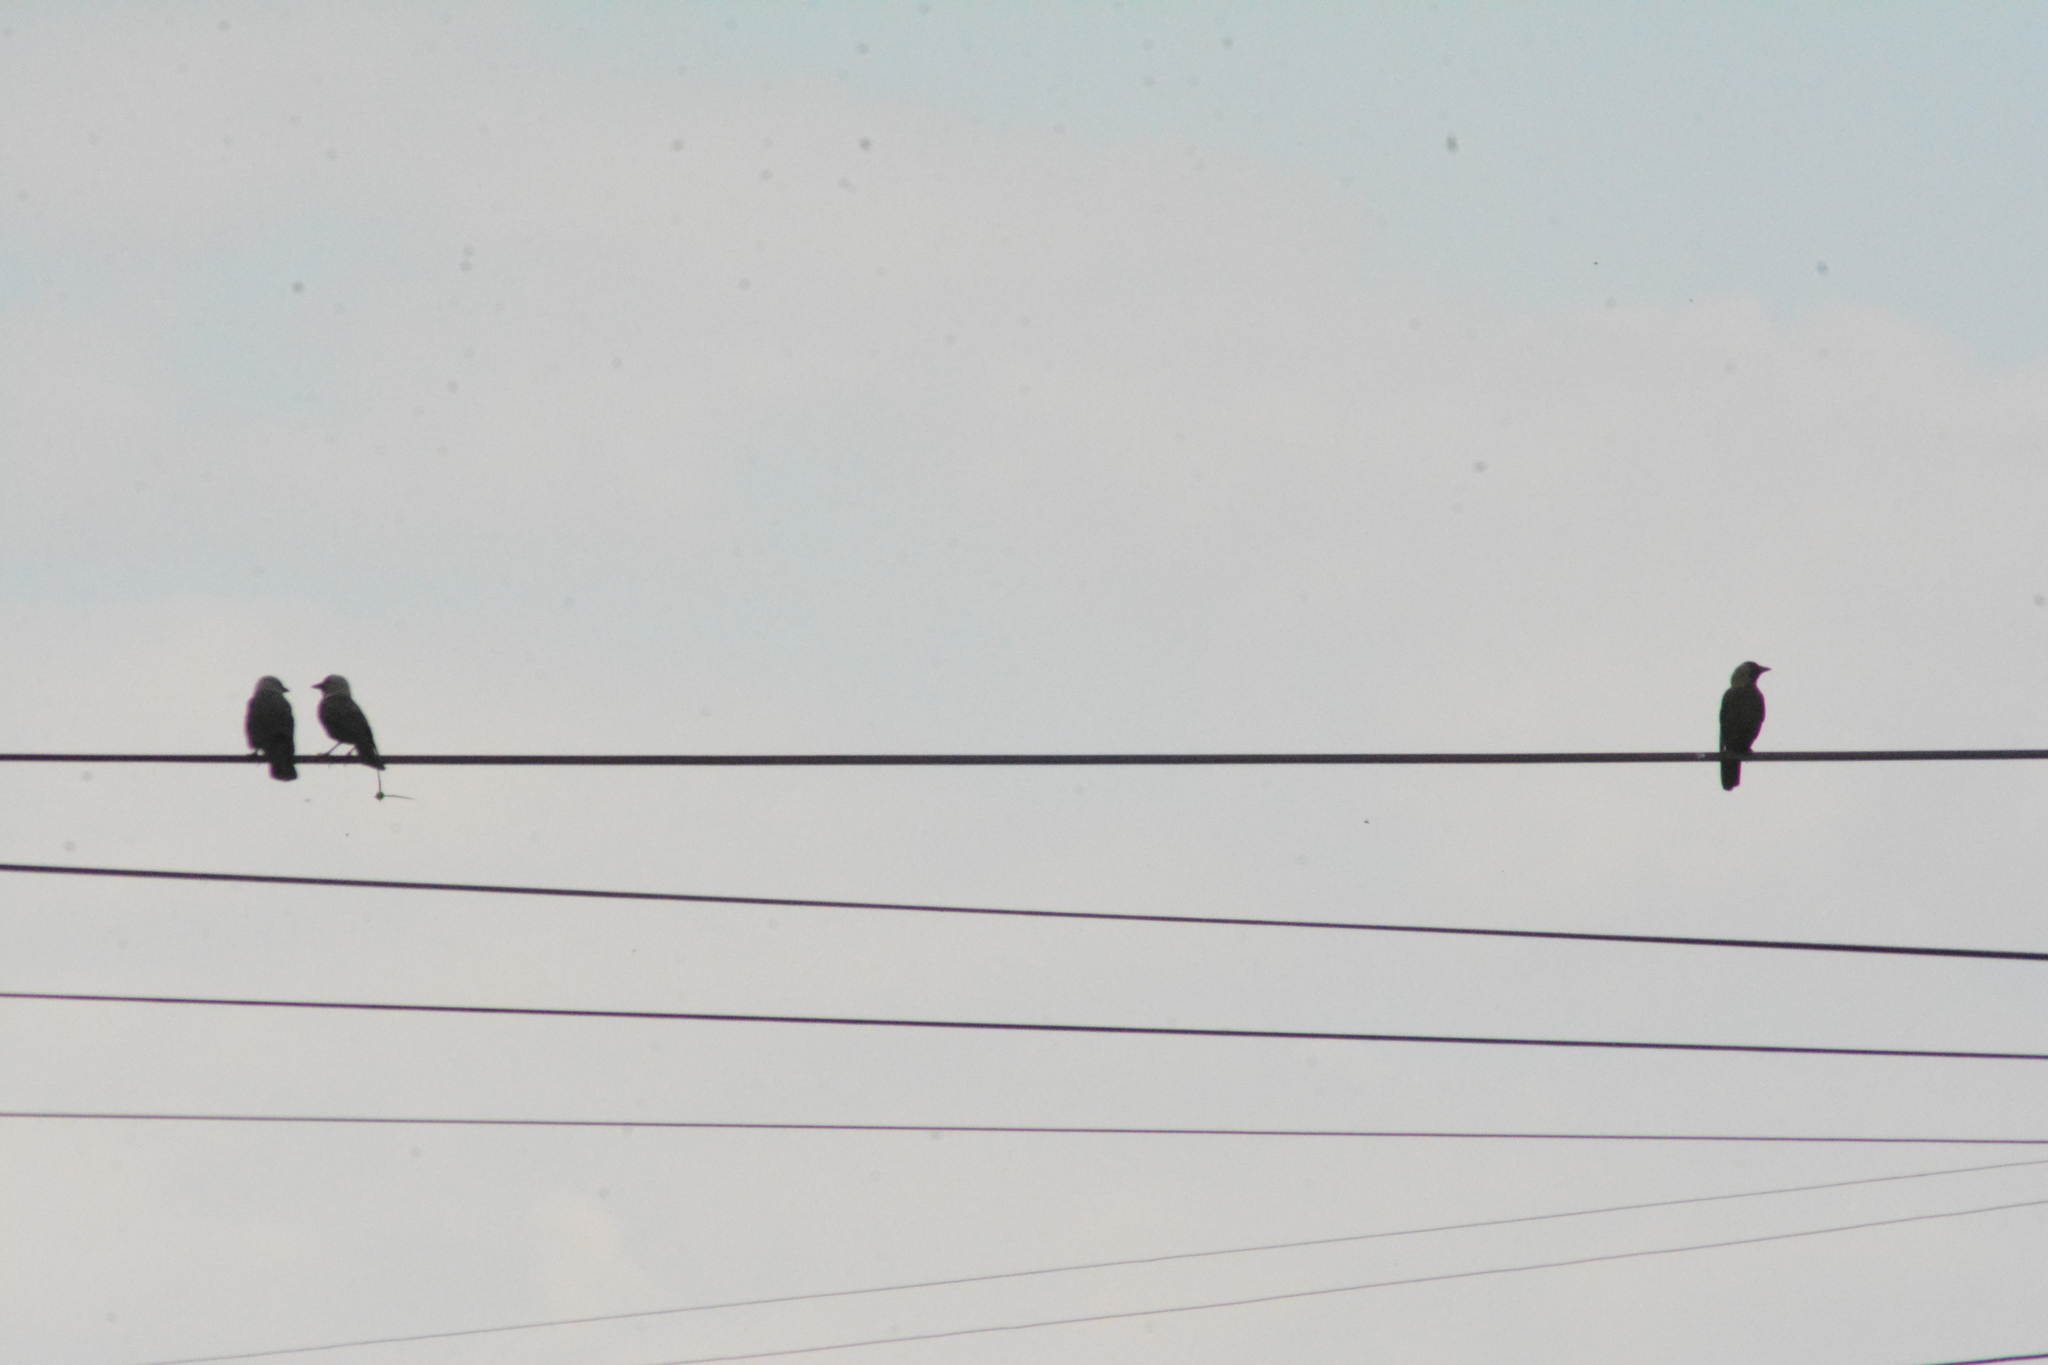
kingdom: Animalia
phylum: Chordata
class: Aves
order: Passeriformes
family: Corvidae
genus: Coloeus
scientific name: Coloeus monedula
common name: Western jackdaw
